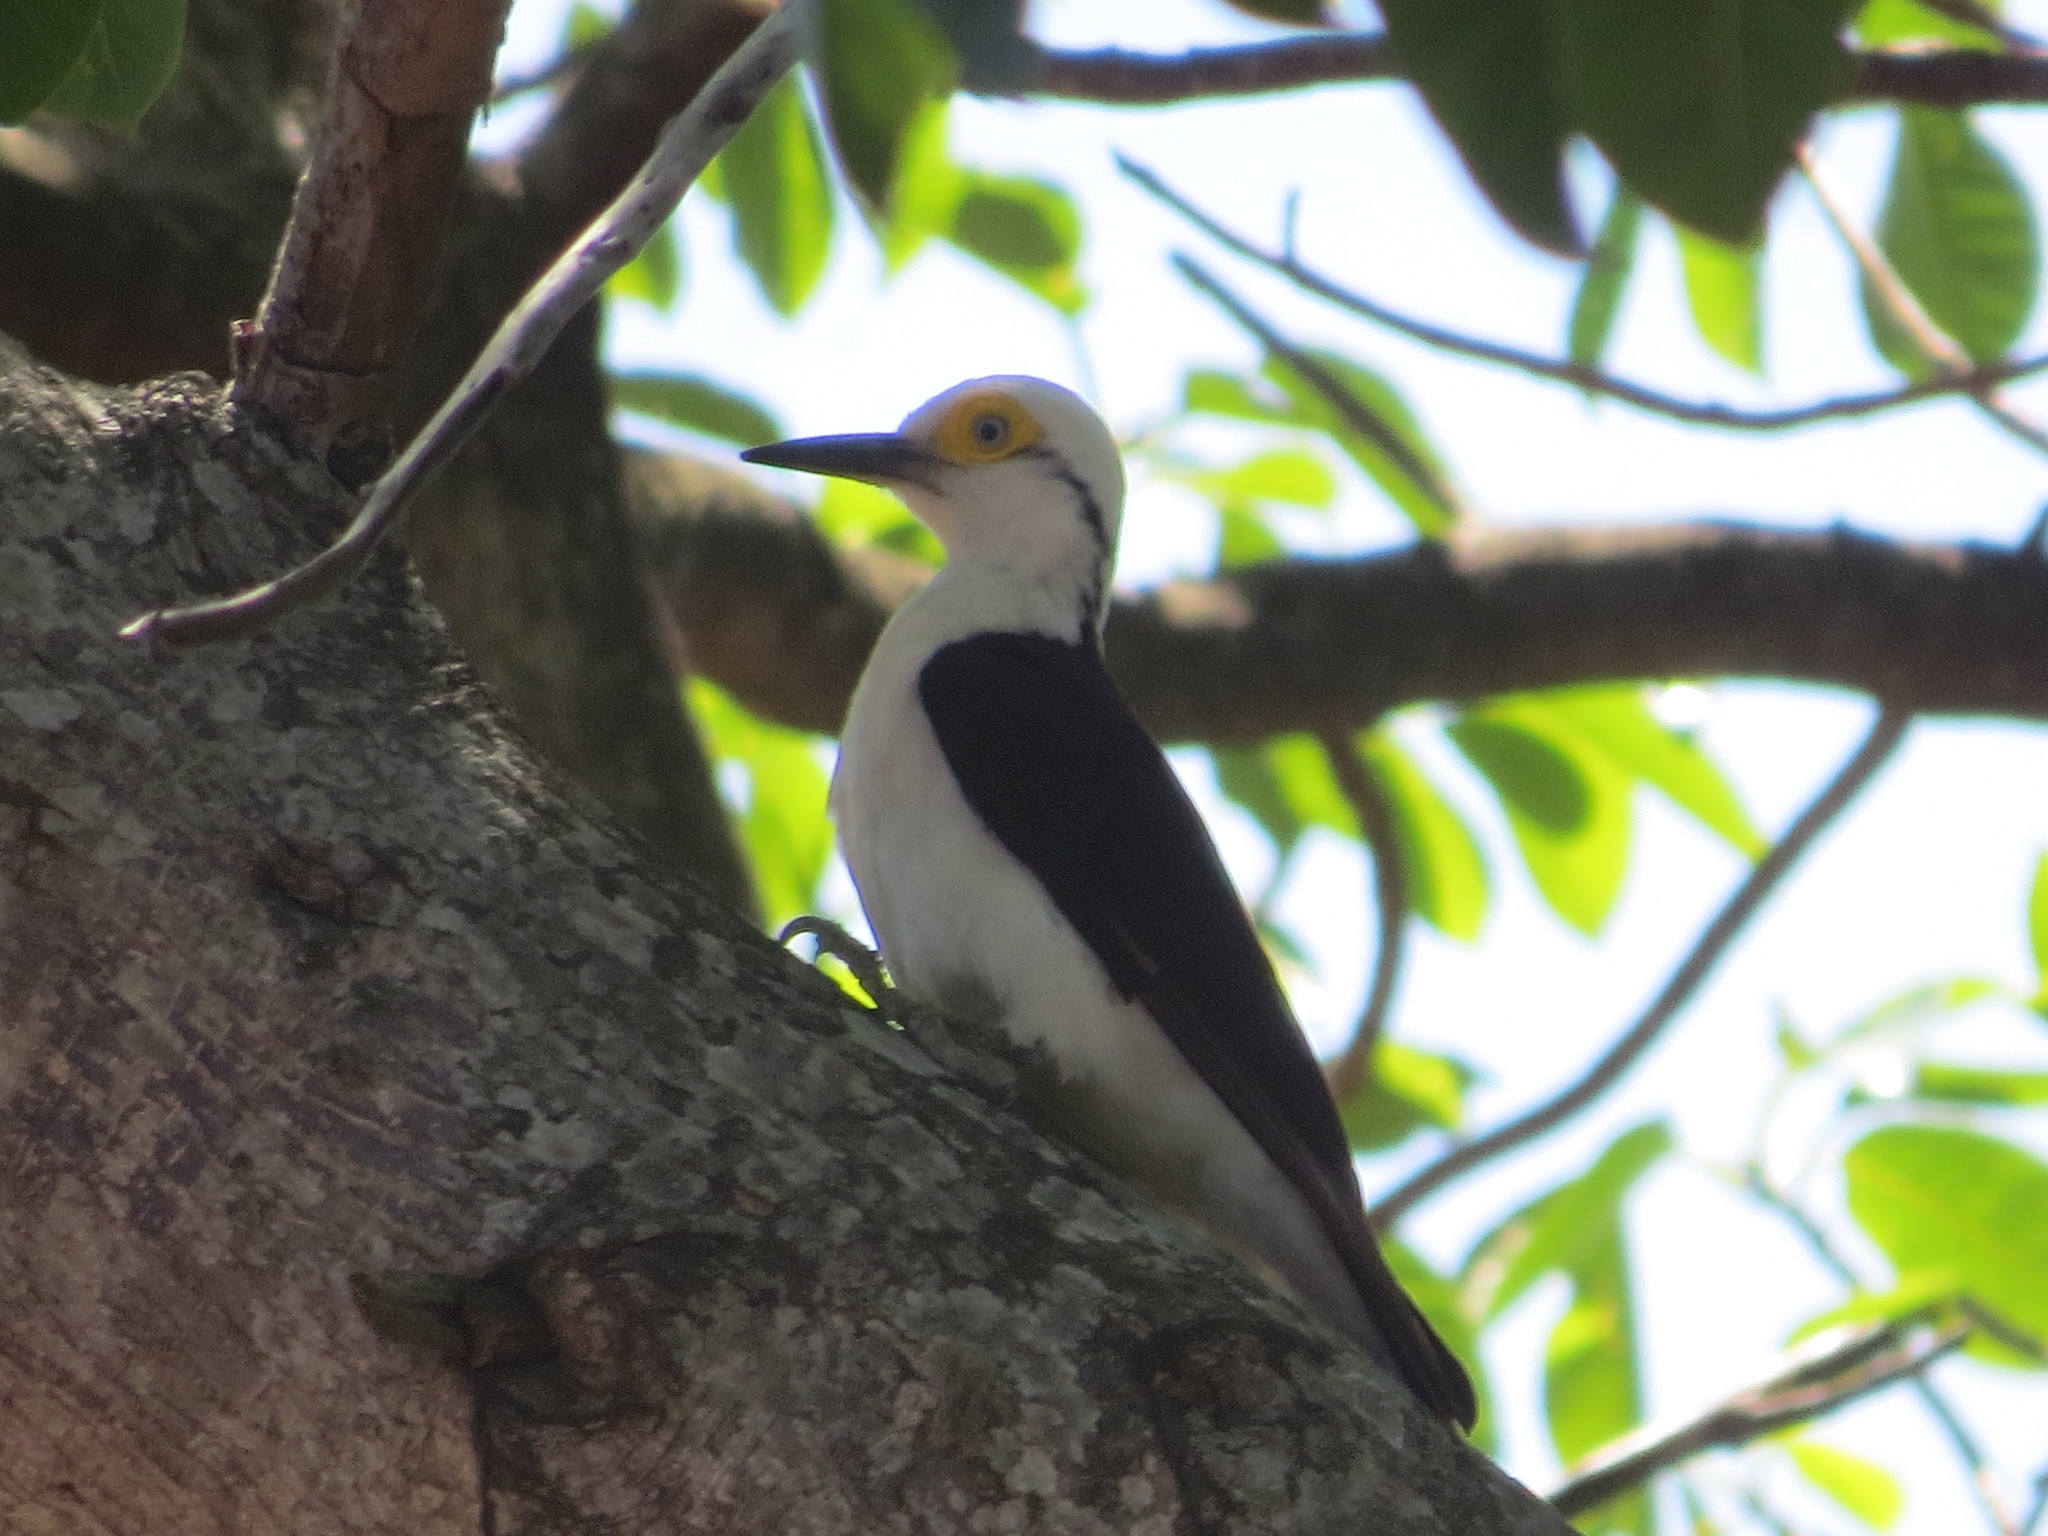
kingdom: Animalia
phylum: Chordata
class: Aves
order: Piciformes
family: Picidae
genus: Melanerpes
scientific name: Melanerpes candidus
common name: White woodpecker
